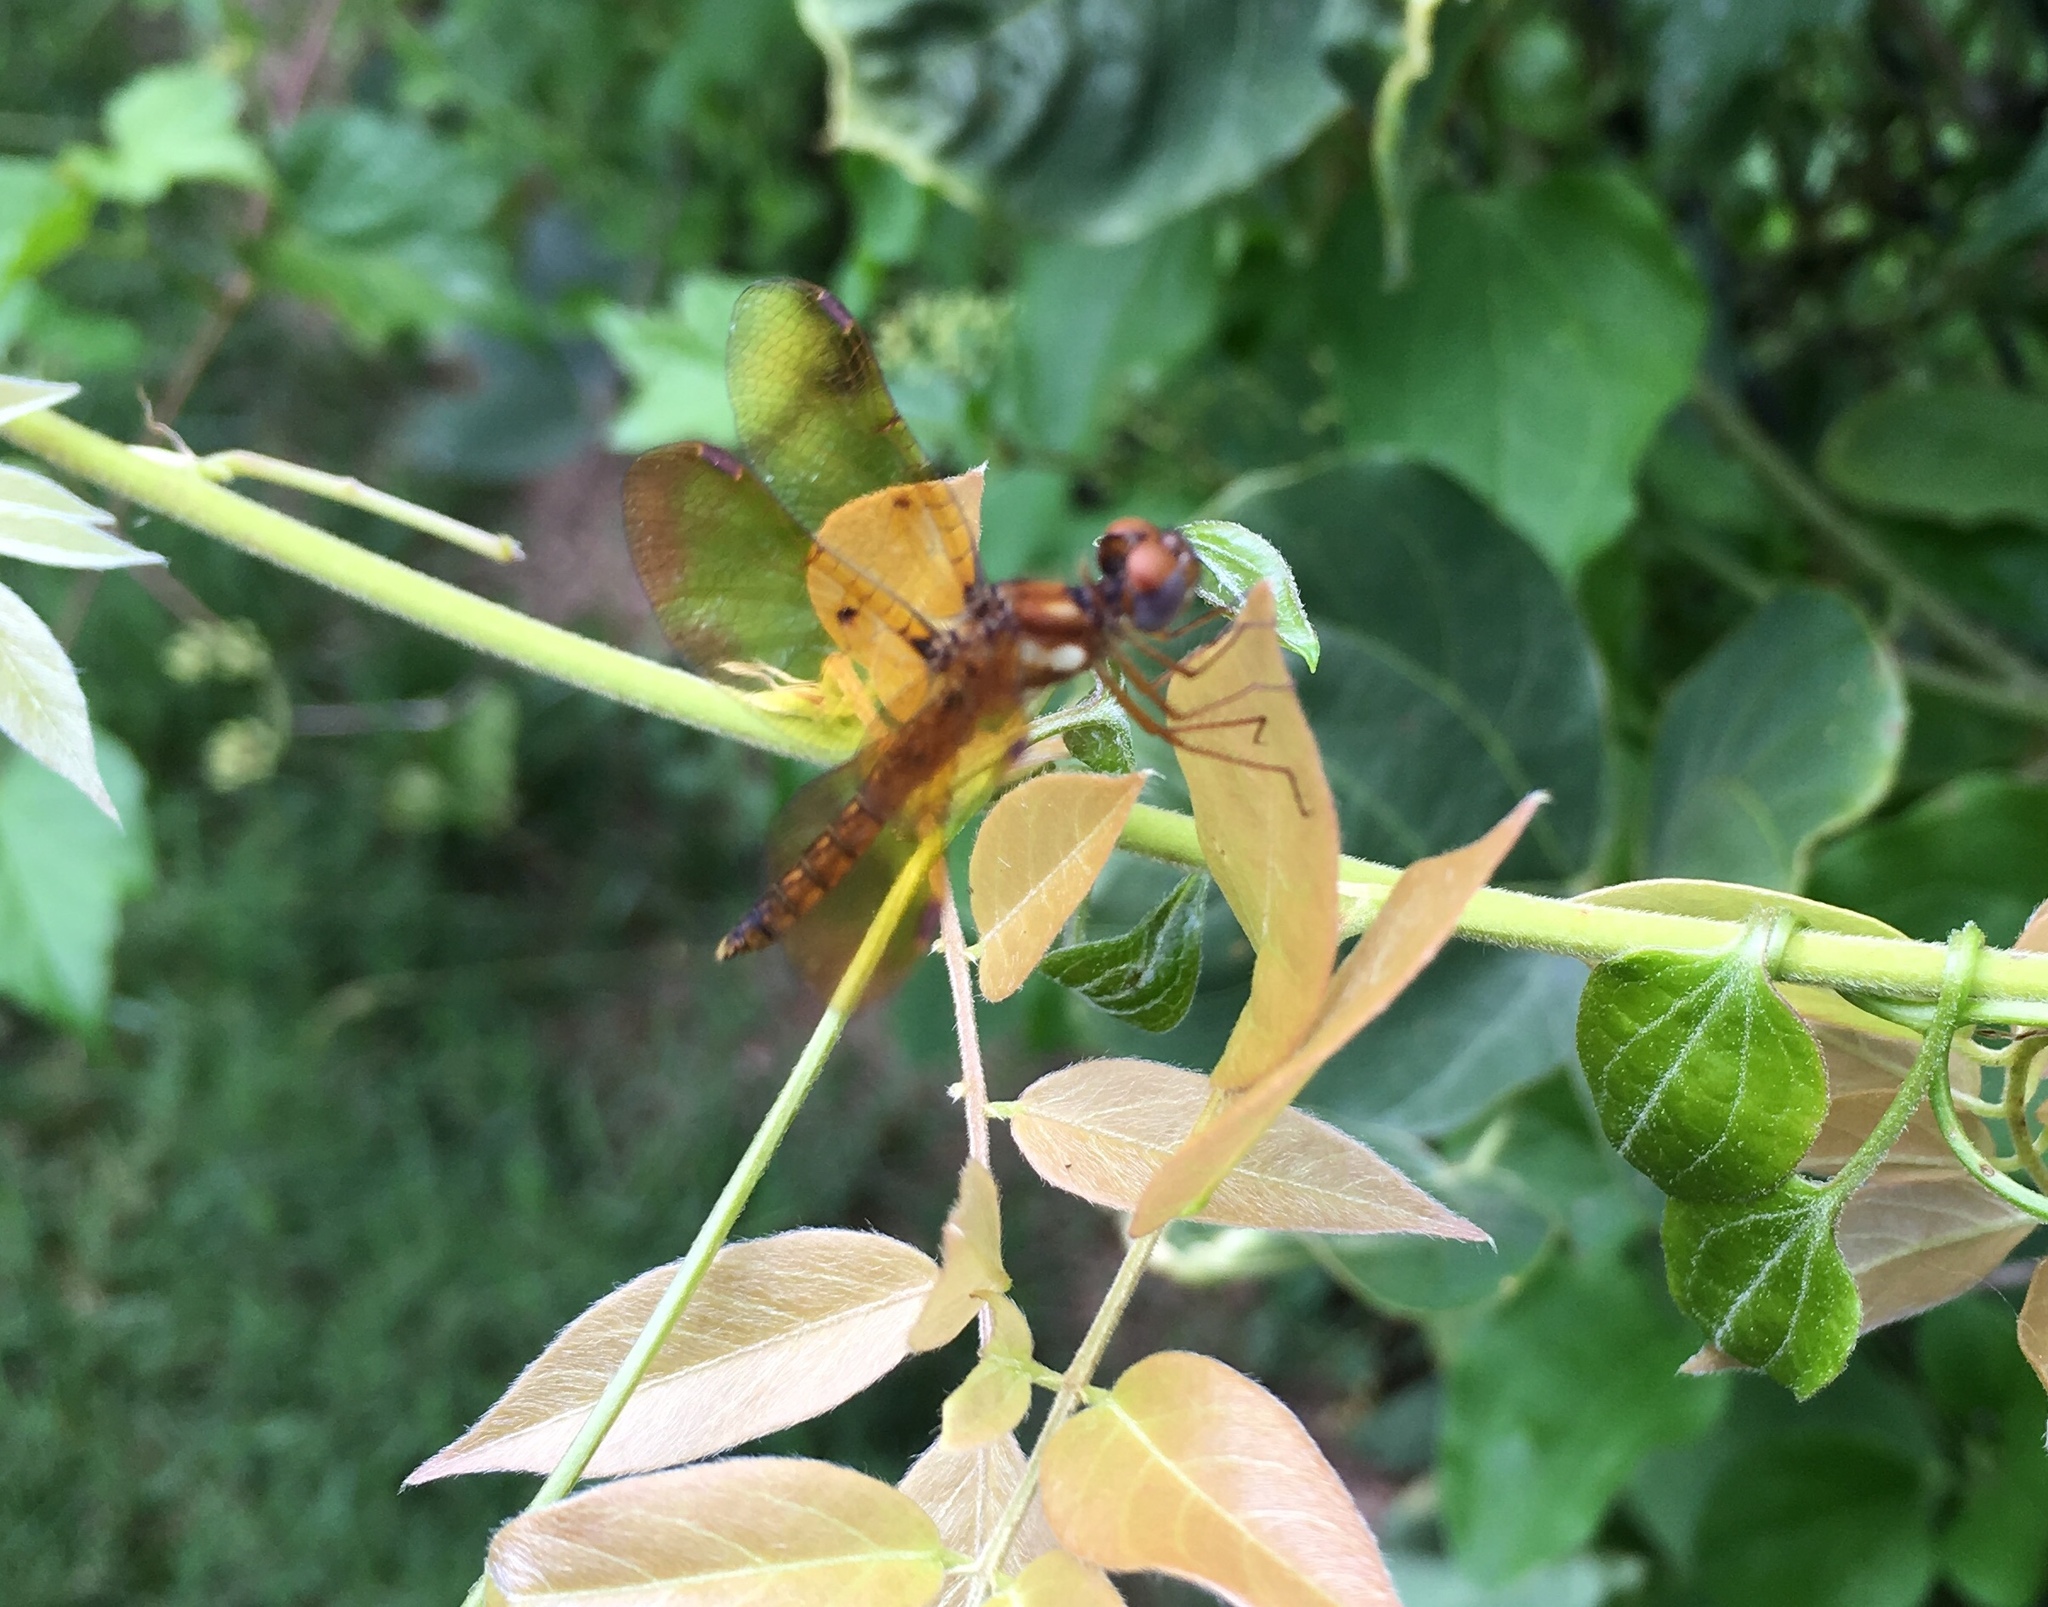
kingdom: Animalia
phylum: Arthropoda
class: Insecta
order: Odonata
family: Libellulidae
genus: Perithemis
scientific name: Perithemis tenera
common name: Eastern amberwing
